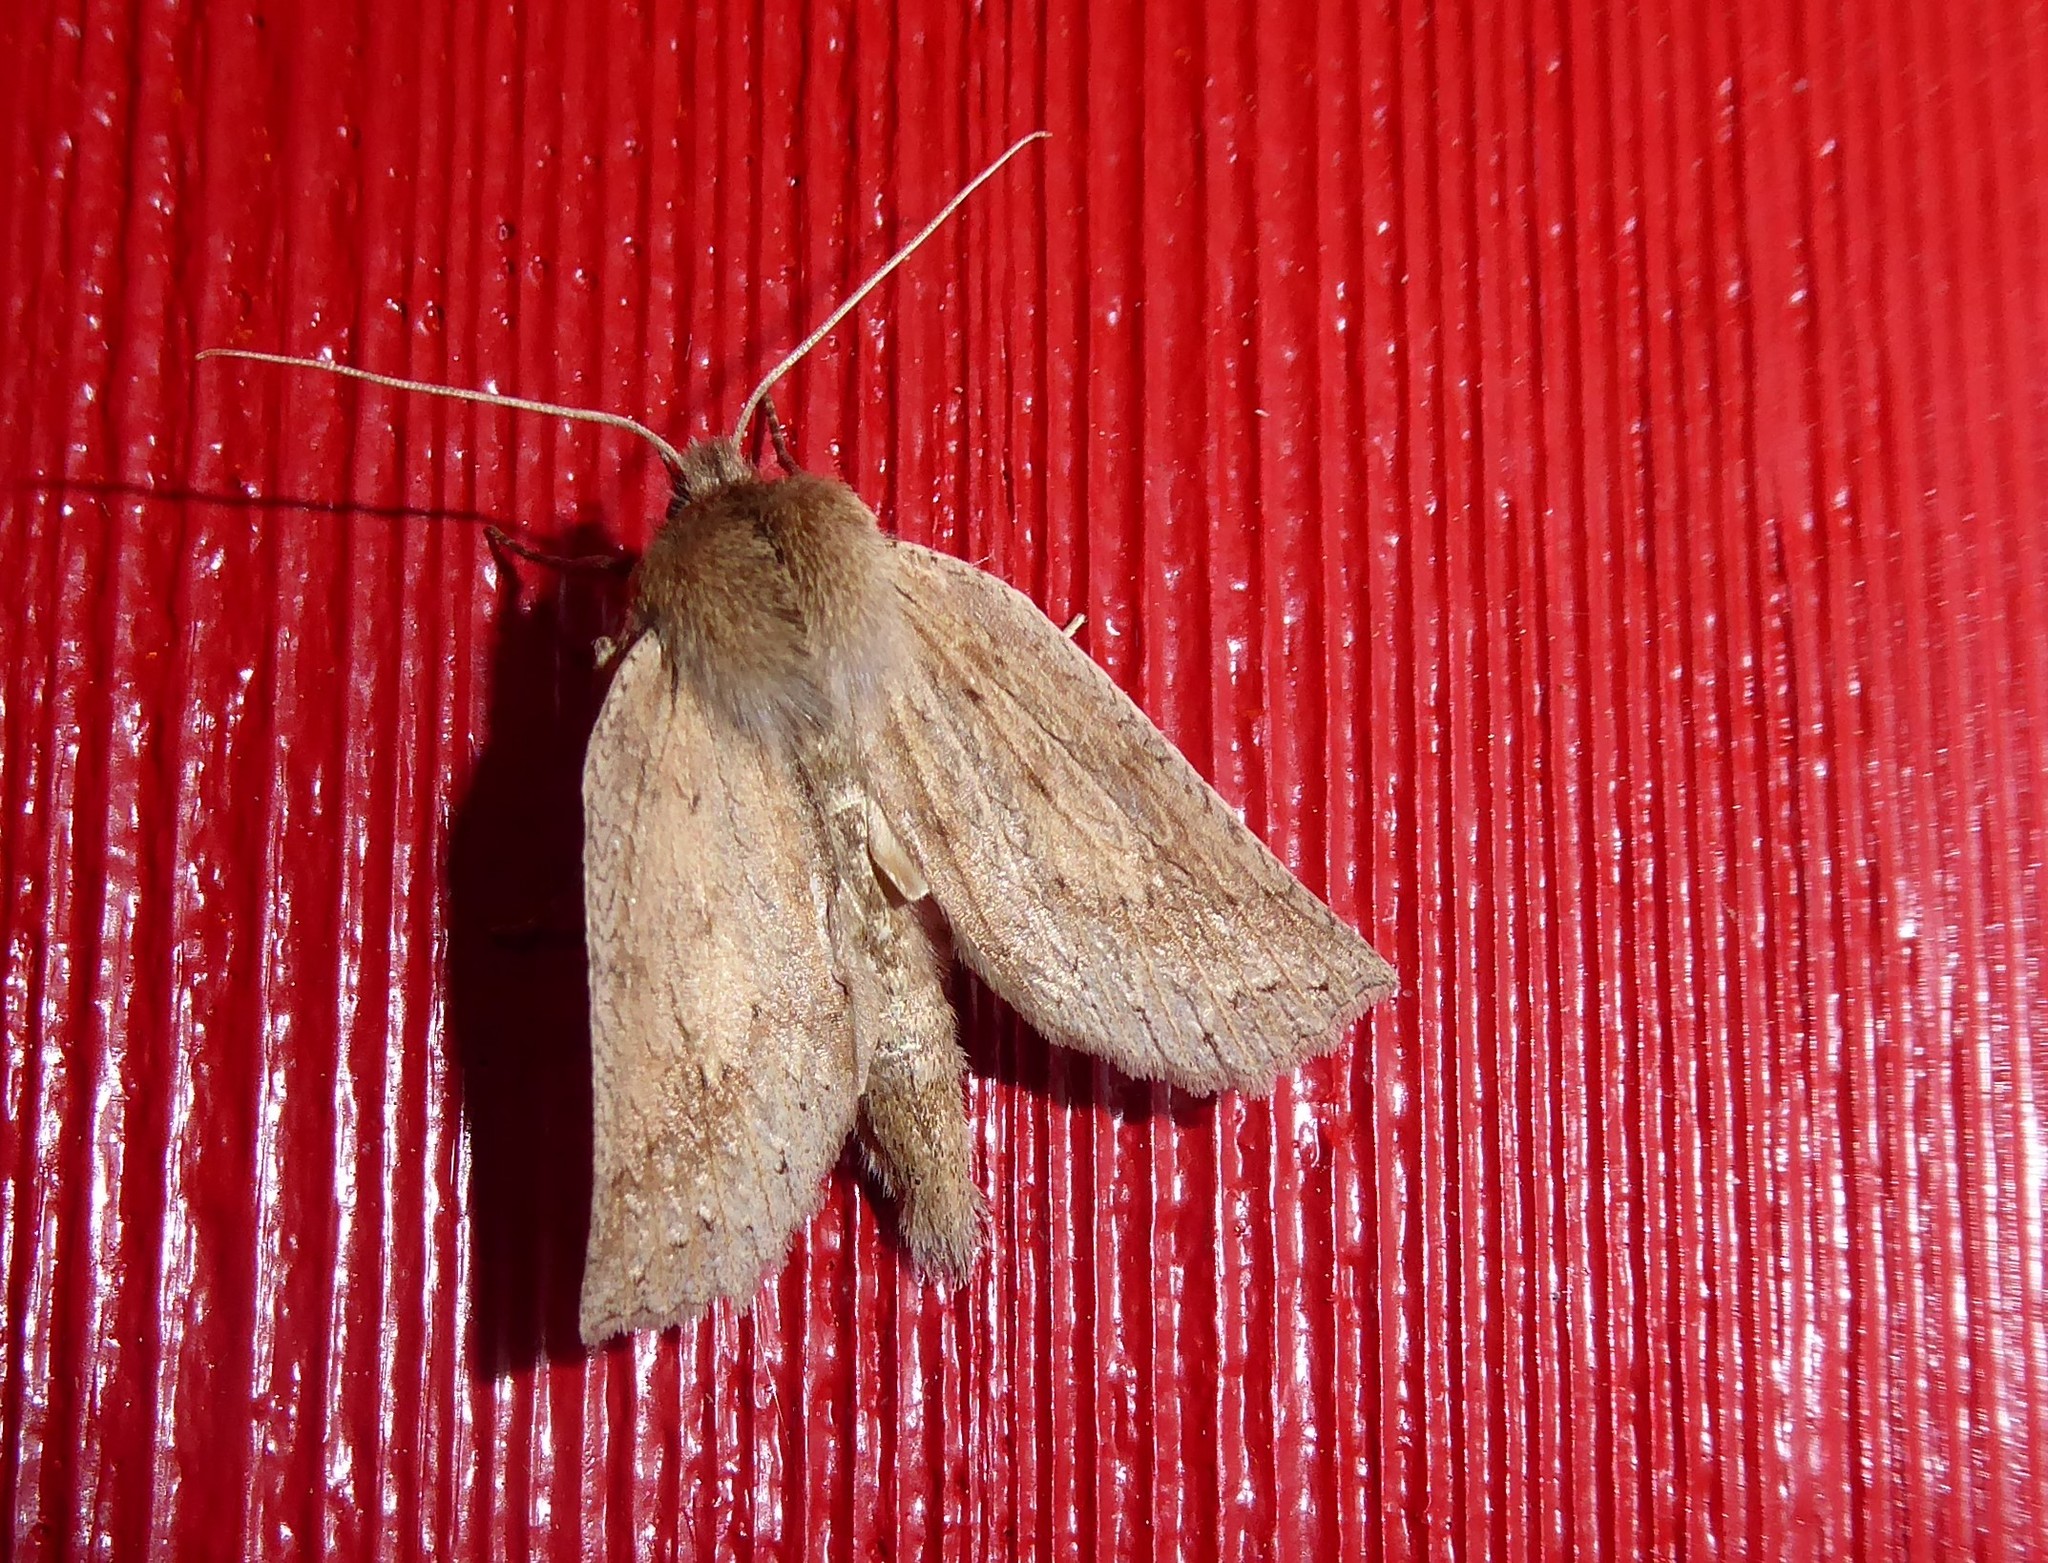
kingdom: Animalia
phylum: Arthropoda
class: Insecta
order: Lepidoptera
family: Geometridae
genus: Declana
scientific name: Declana leptomera
